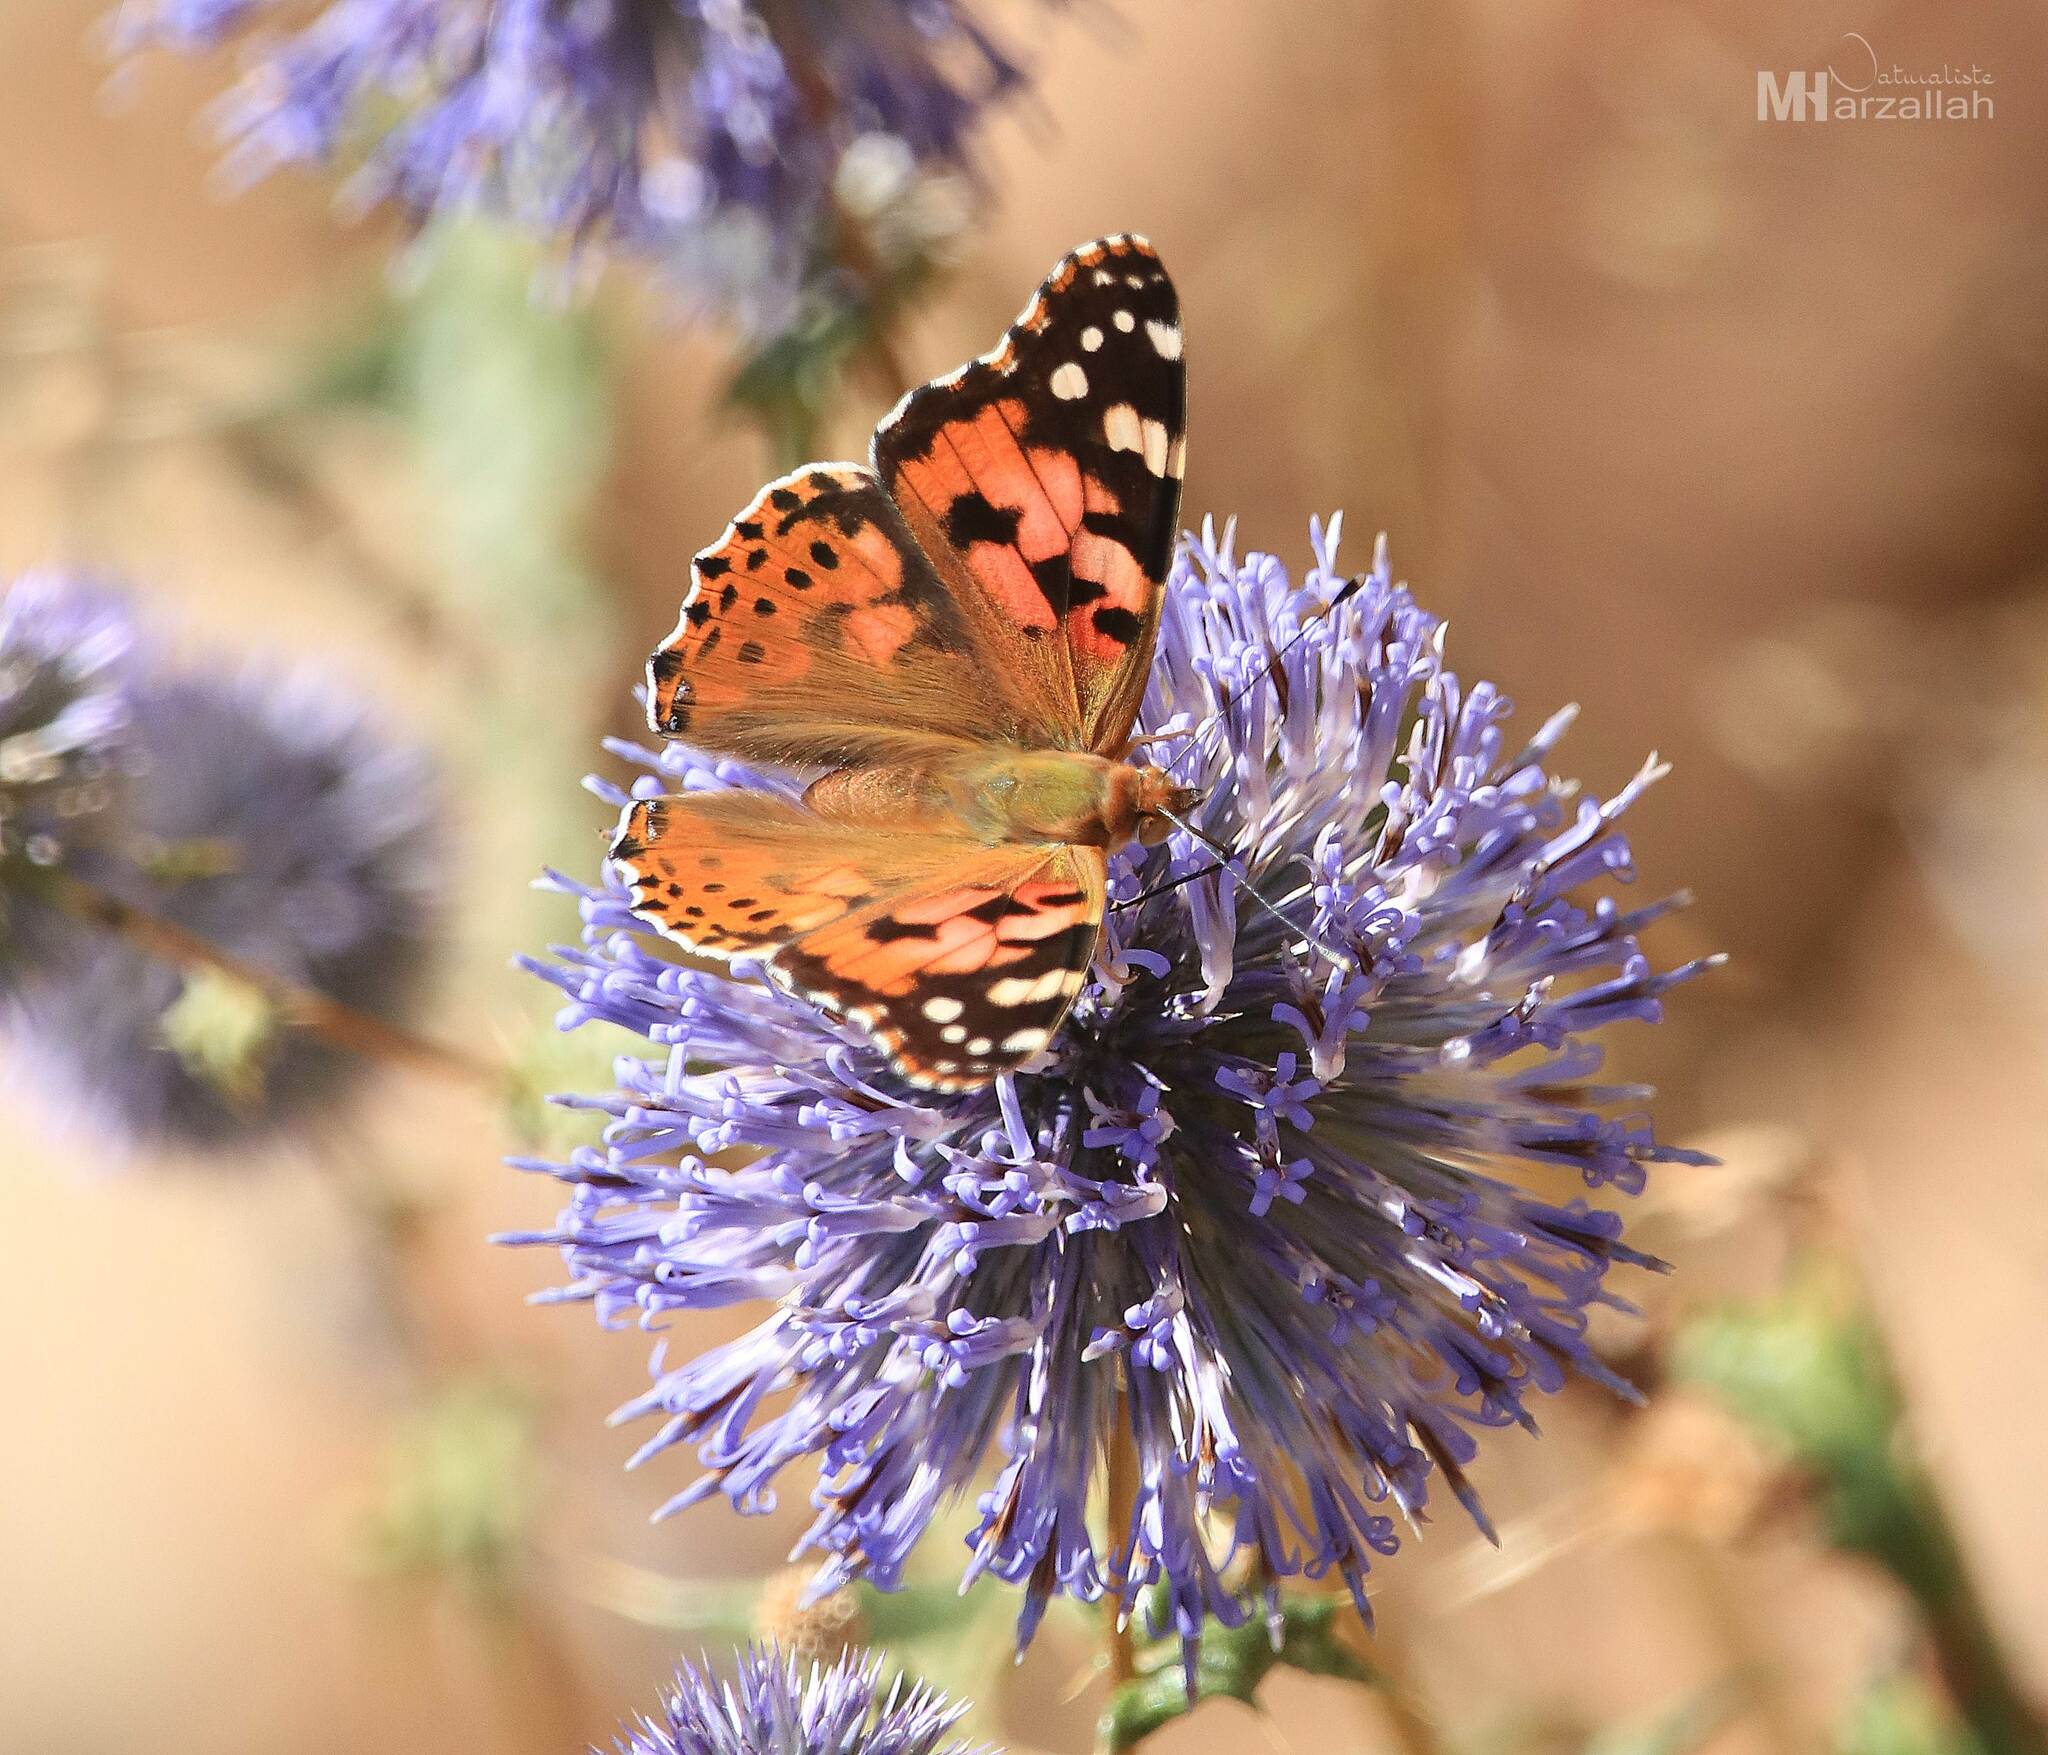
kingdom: Animalia
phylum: Arthropoda
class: Insecta
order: Lepidoptera
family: Nymphalidae
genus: Vanessa
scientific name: Vanessa cardui
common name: Painted lady
